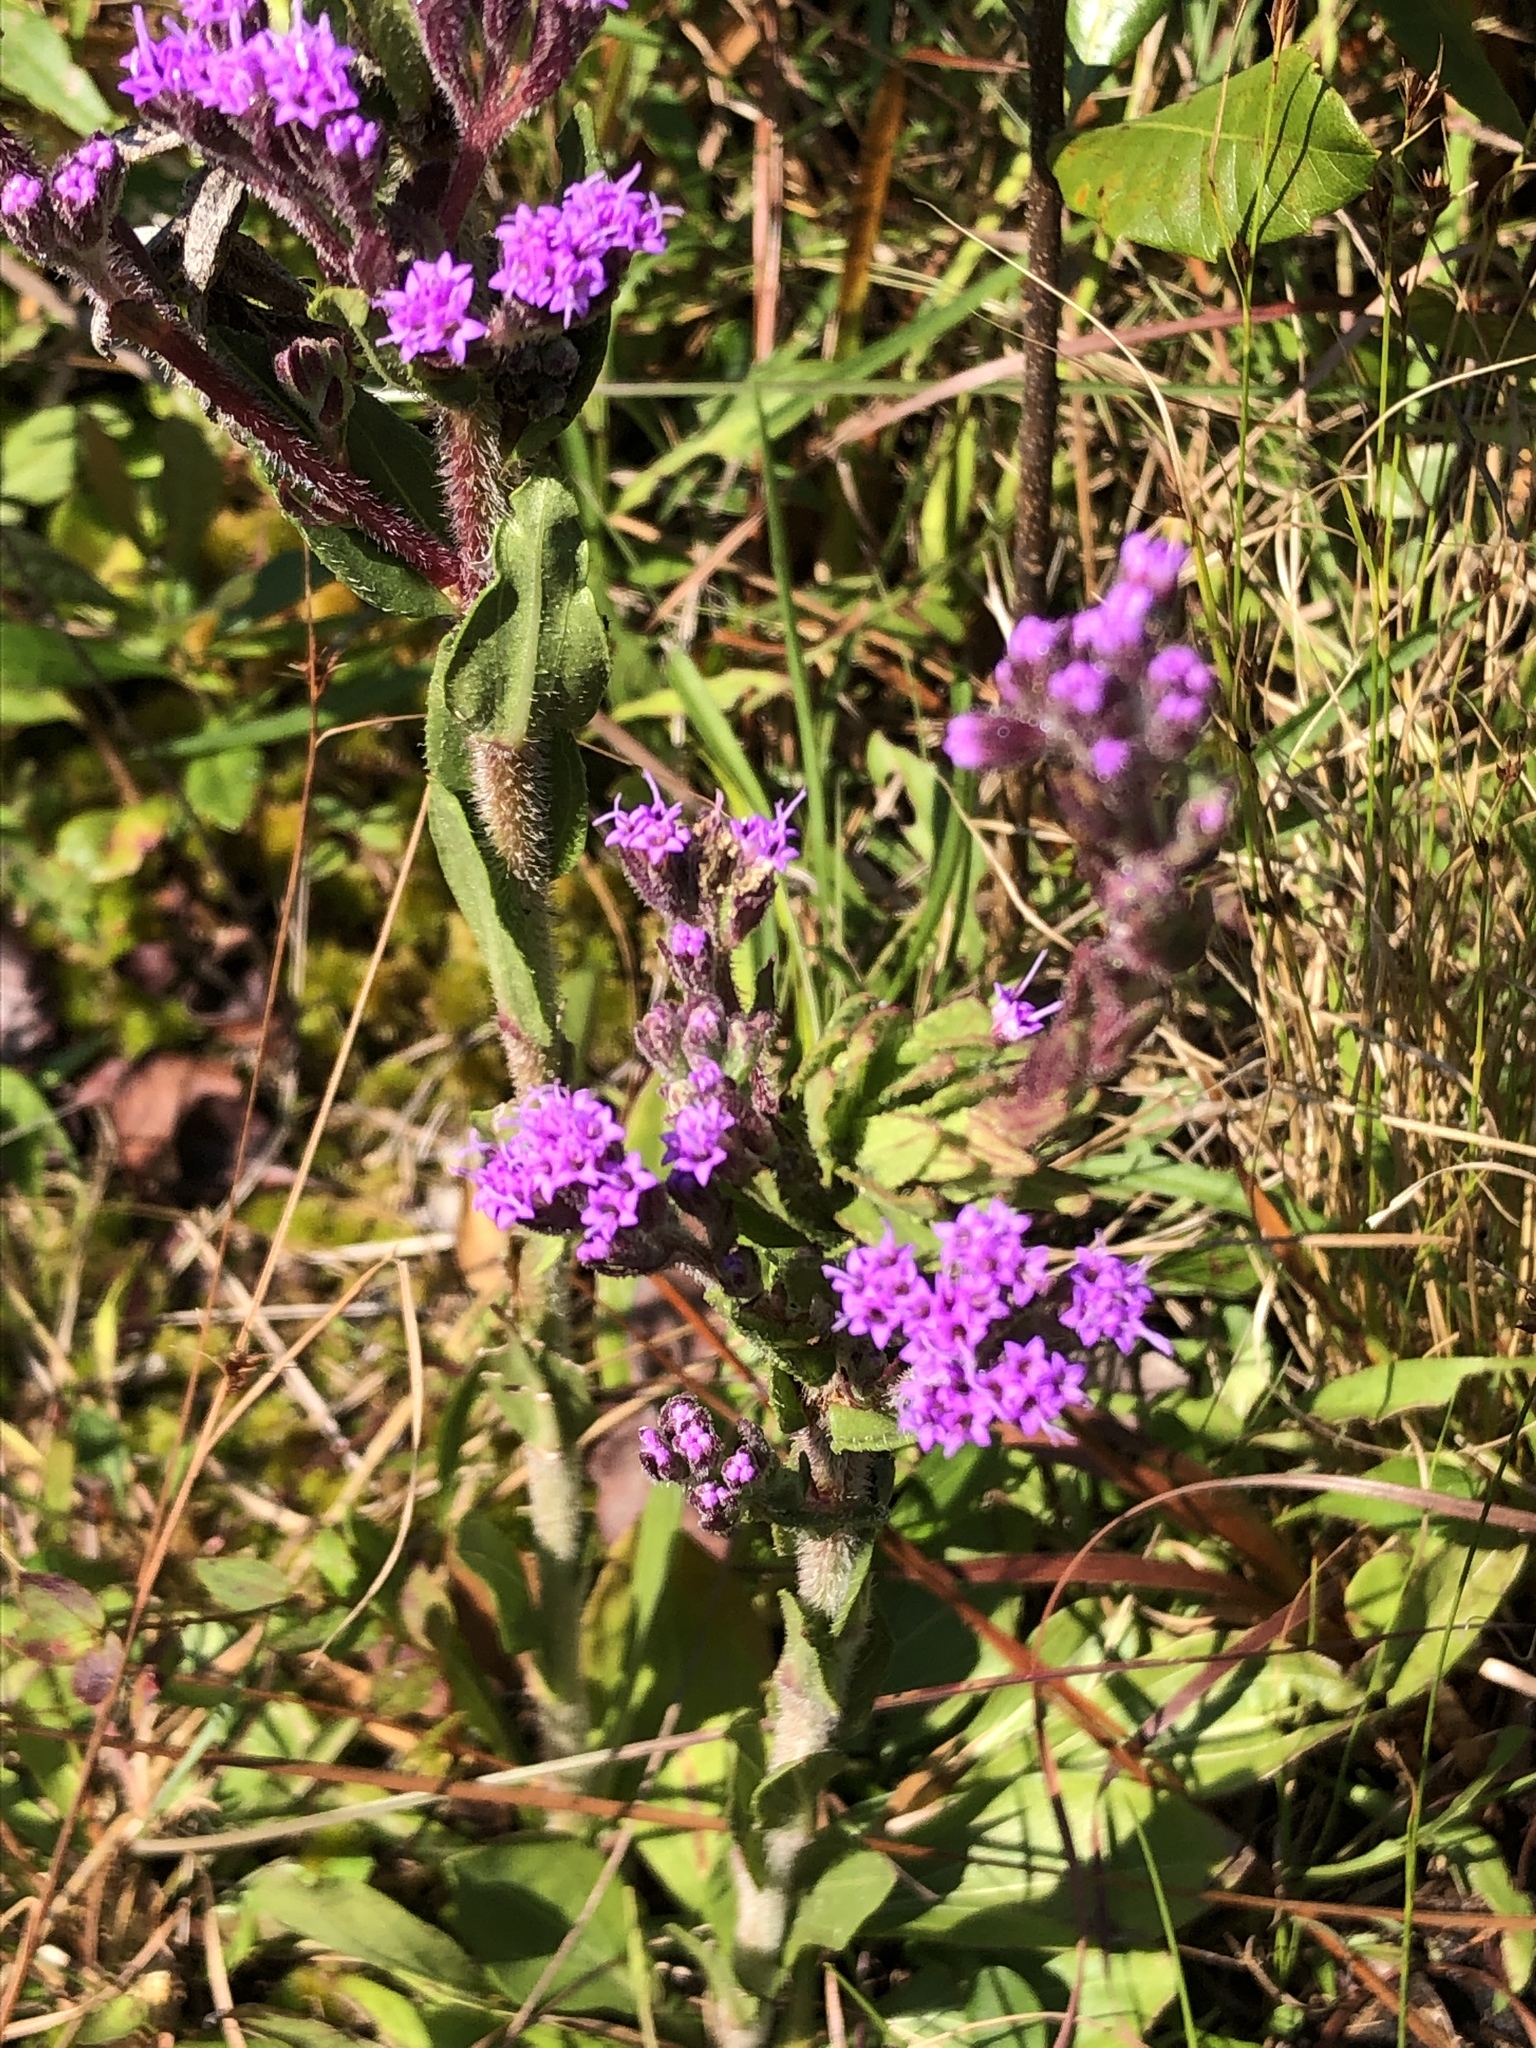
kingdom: Plantae
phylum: Tracheophyta
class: Magnoliopsida
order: Asterales
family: Asteraceae
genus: Carphephorus
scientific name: Carphephorus paniculatus
